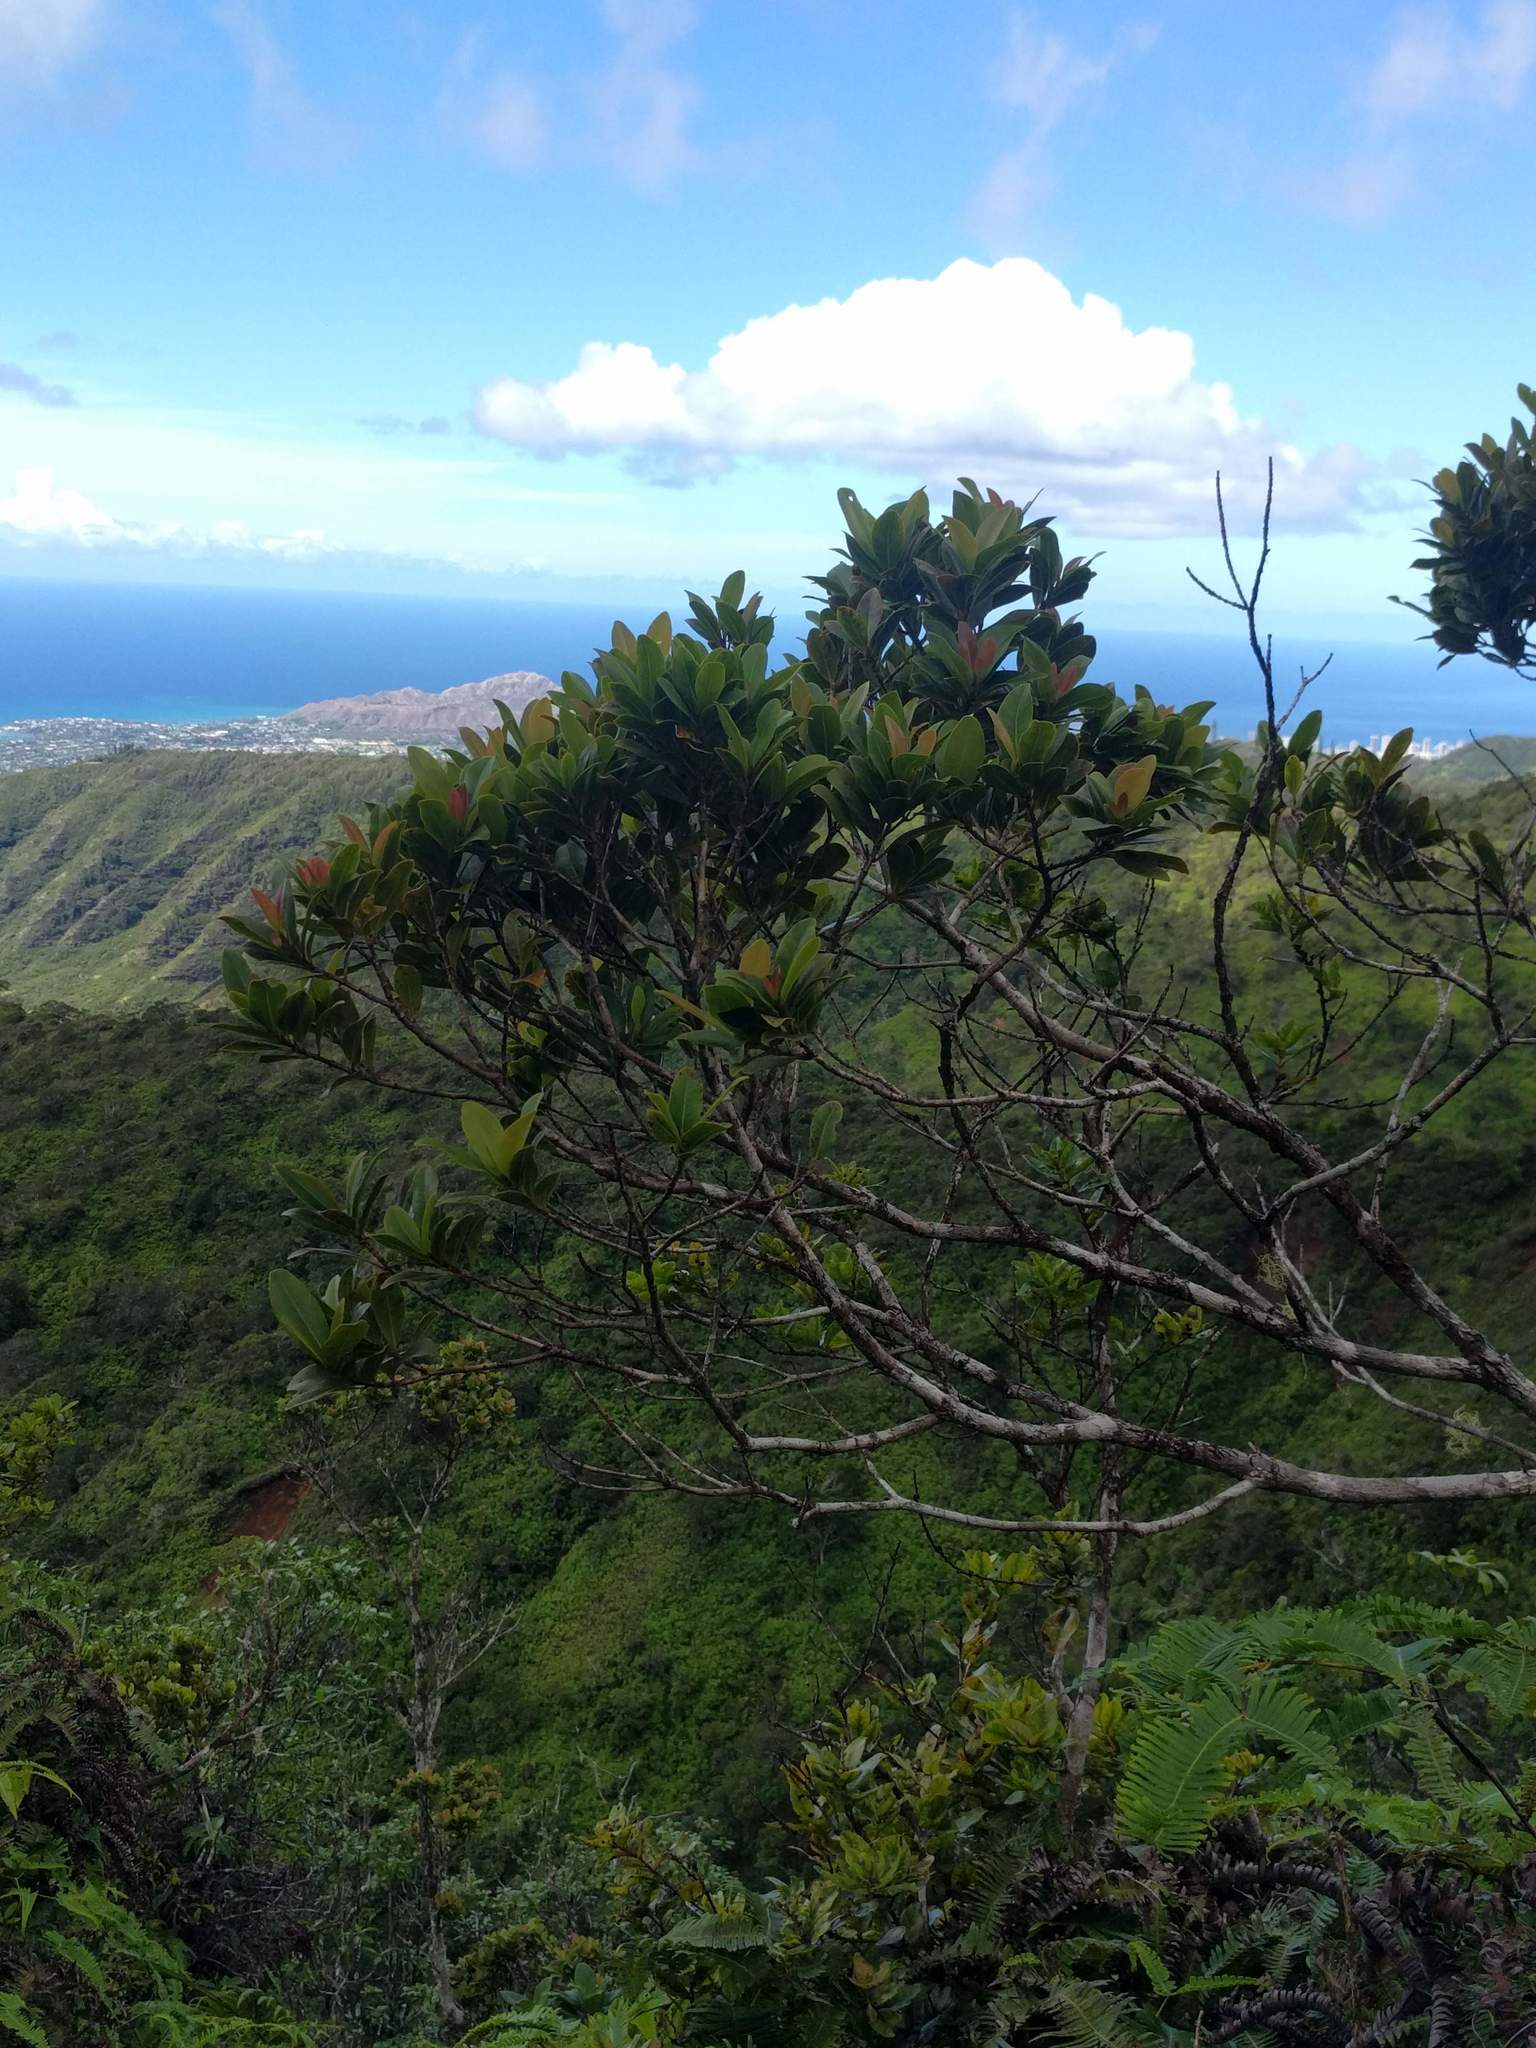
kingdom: Plantae
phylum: Tracheophyta
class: Magnoliopsida
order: Myrtales
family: Myrtaceae
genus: Syzygium
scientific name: Syzygium sandwicense
